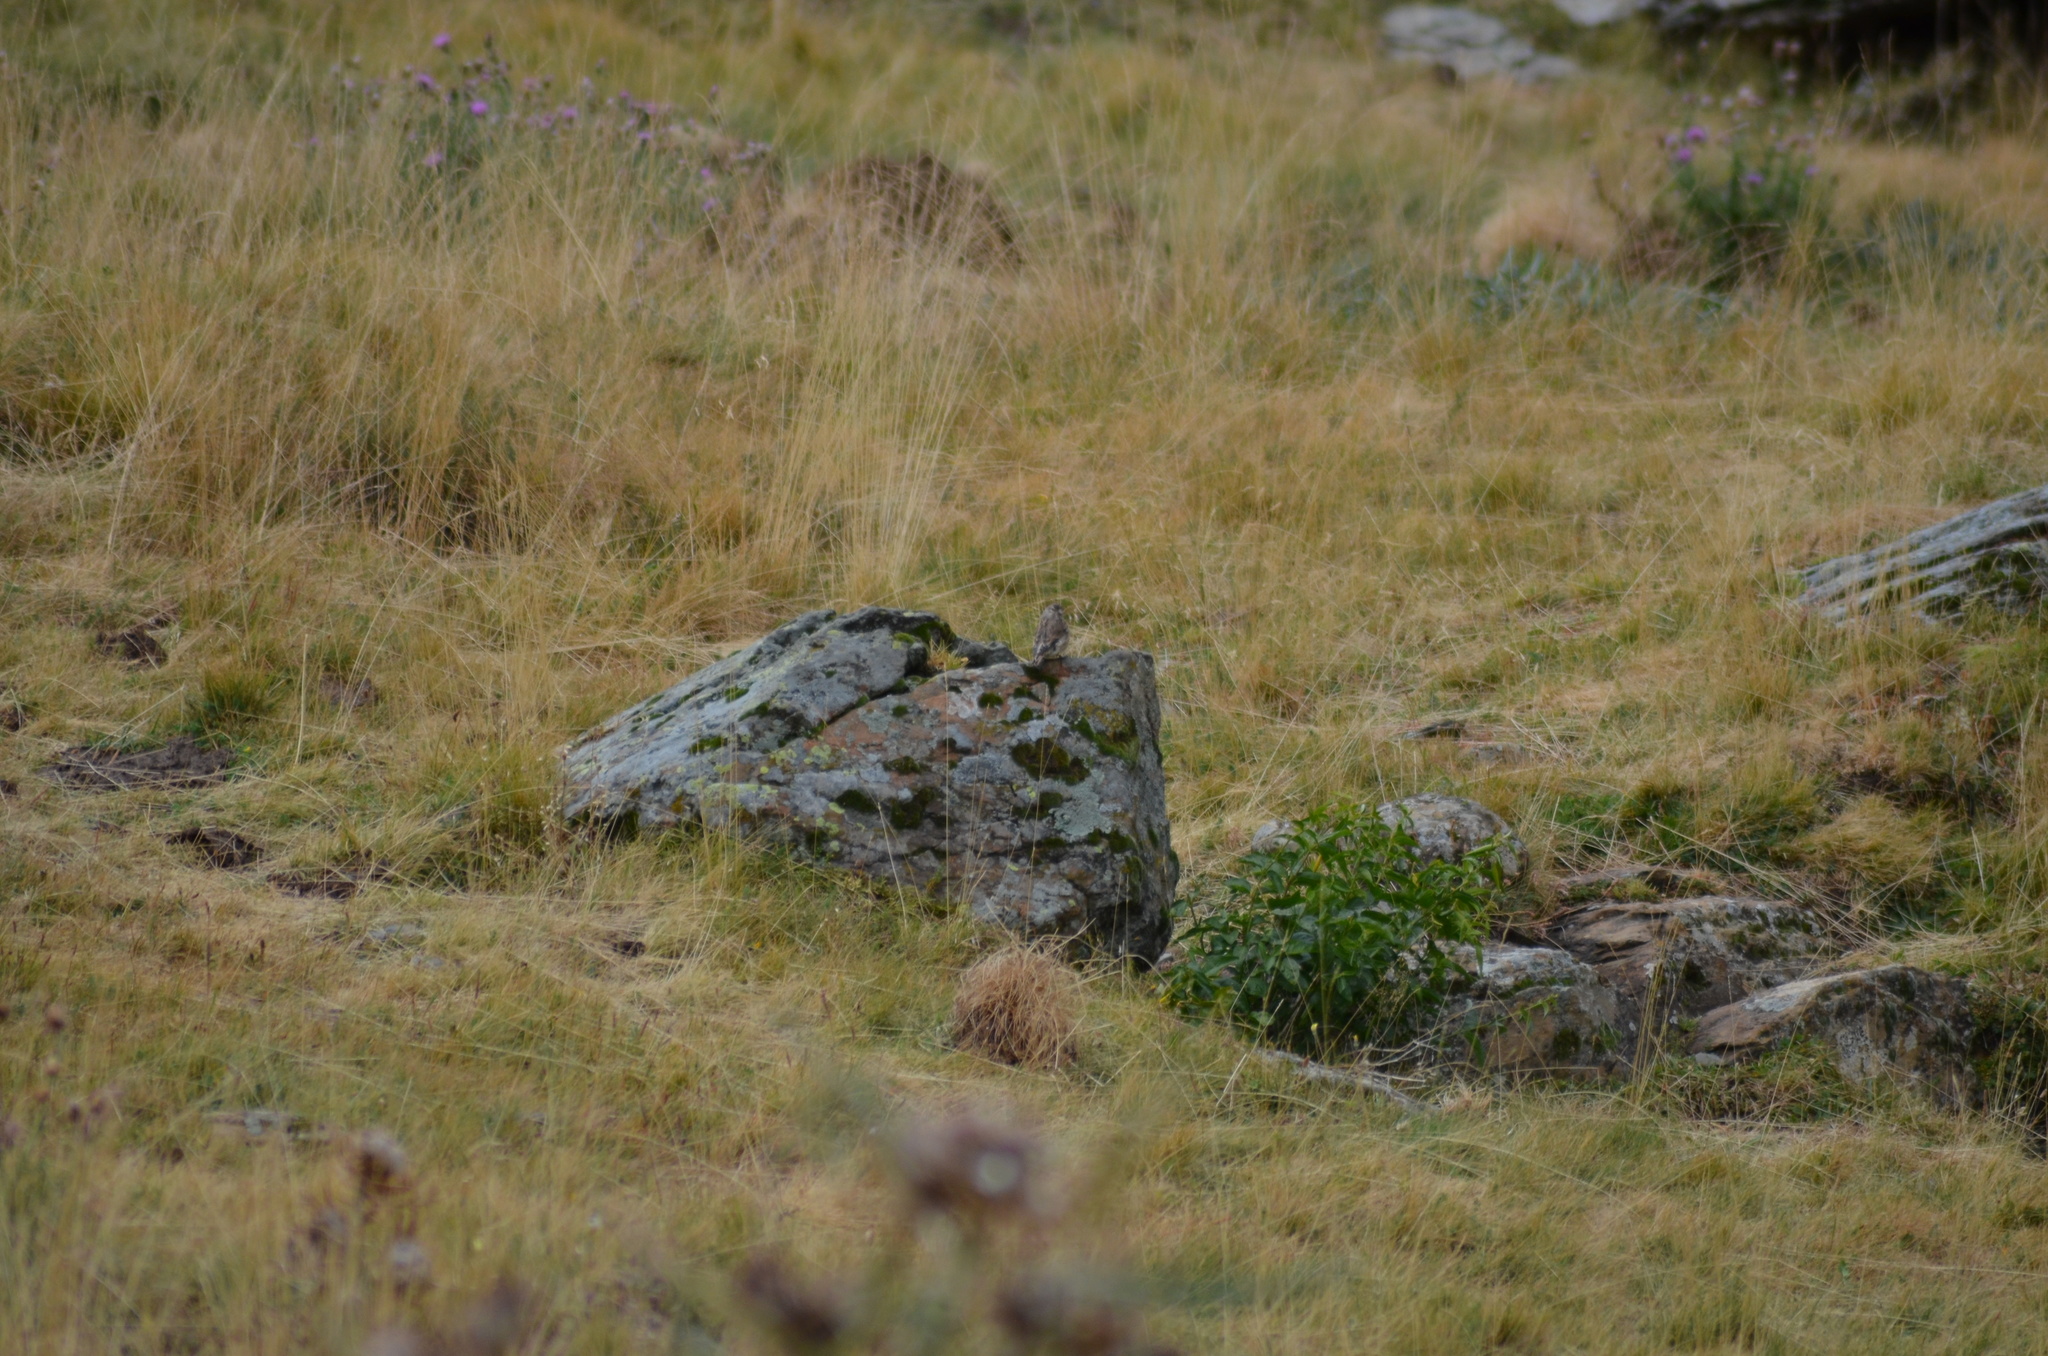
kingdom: Animalia
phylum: Chordata
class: Aves
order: Passeriformes
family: Fringillidae
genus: Linaria
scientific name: Linaria cannabina
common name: Common linnet
